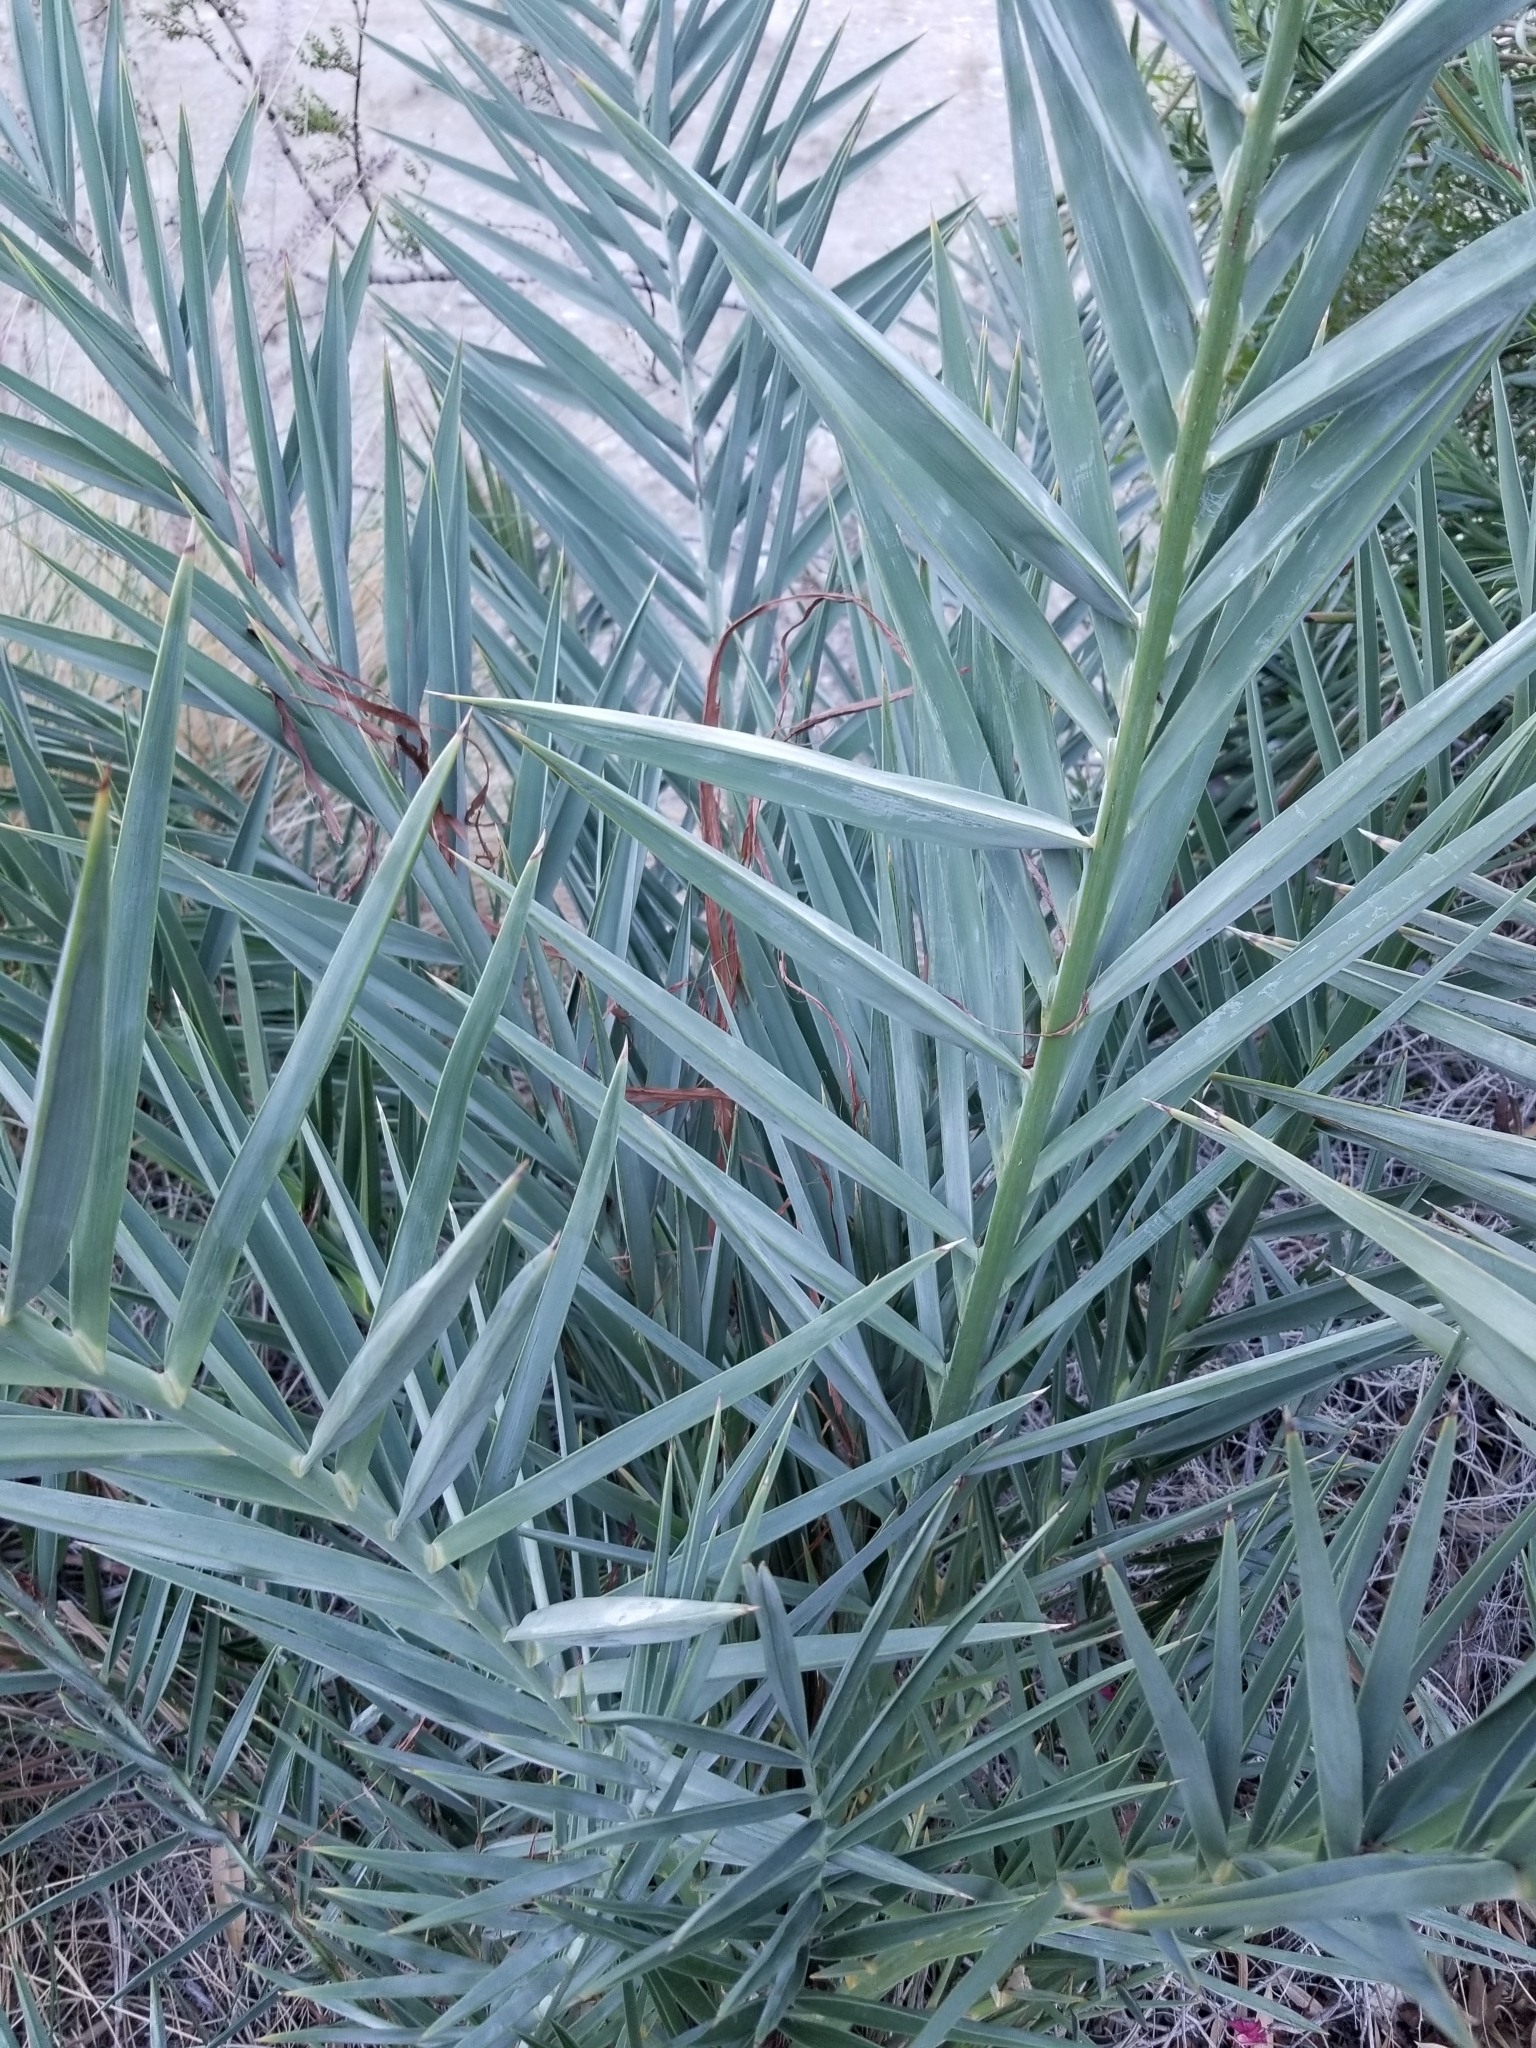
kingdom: Plantae
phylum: Tracheophyta
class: Liliopsida
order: Arecales
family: Arecaceae
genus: Phoenix
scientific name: Phoenix dactylifera
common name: Date palm
